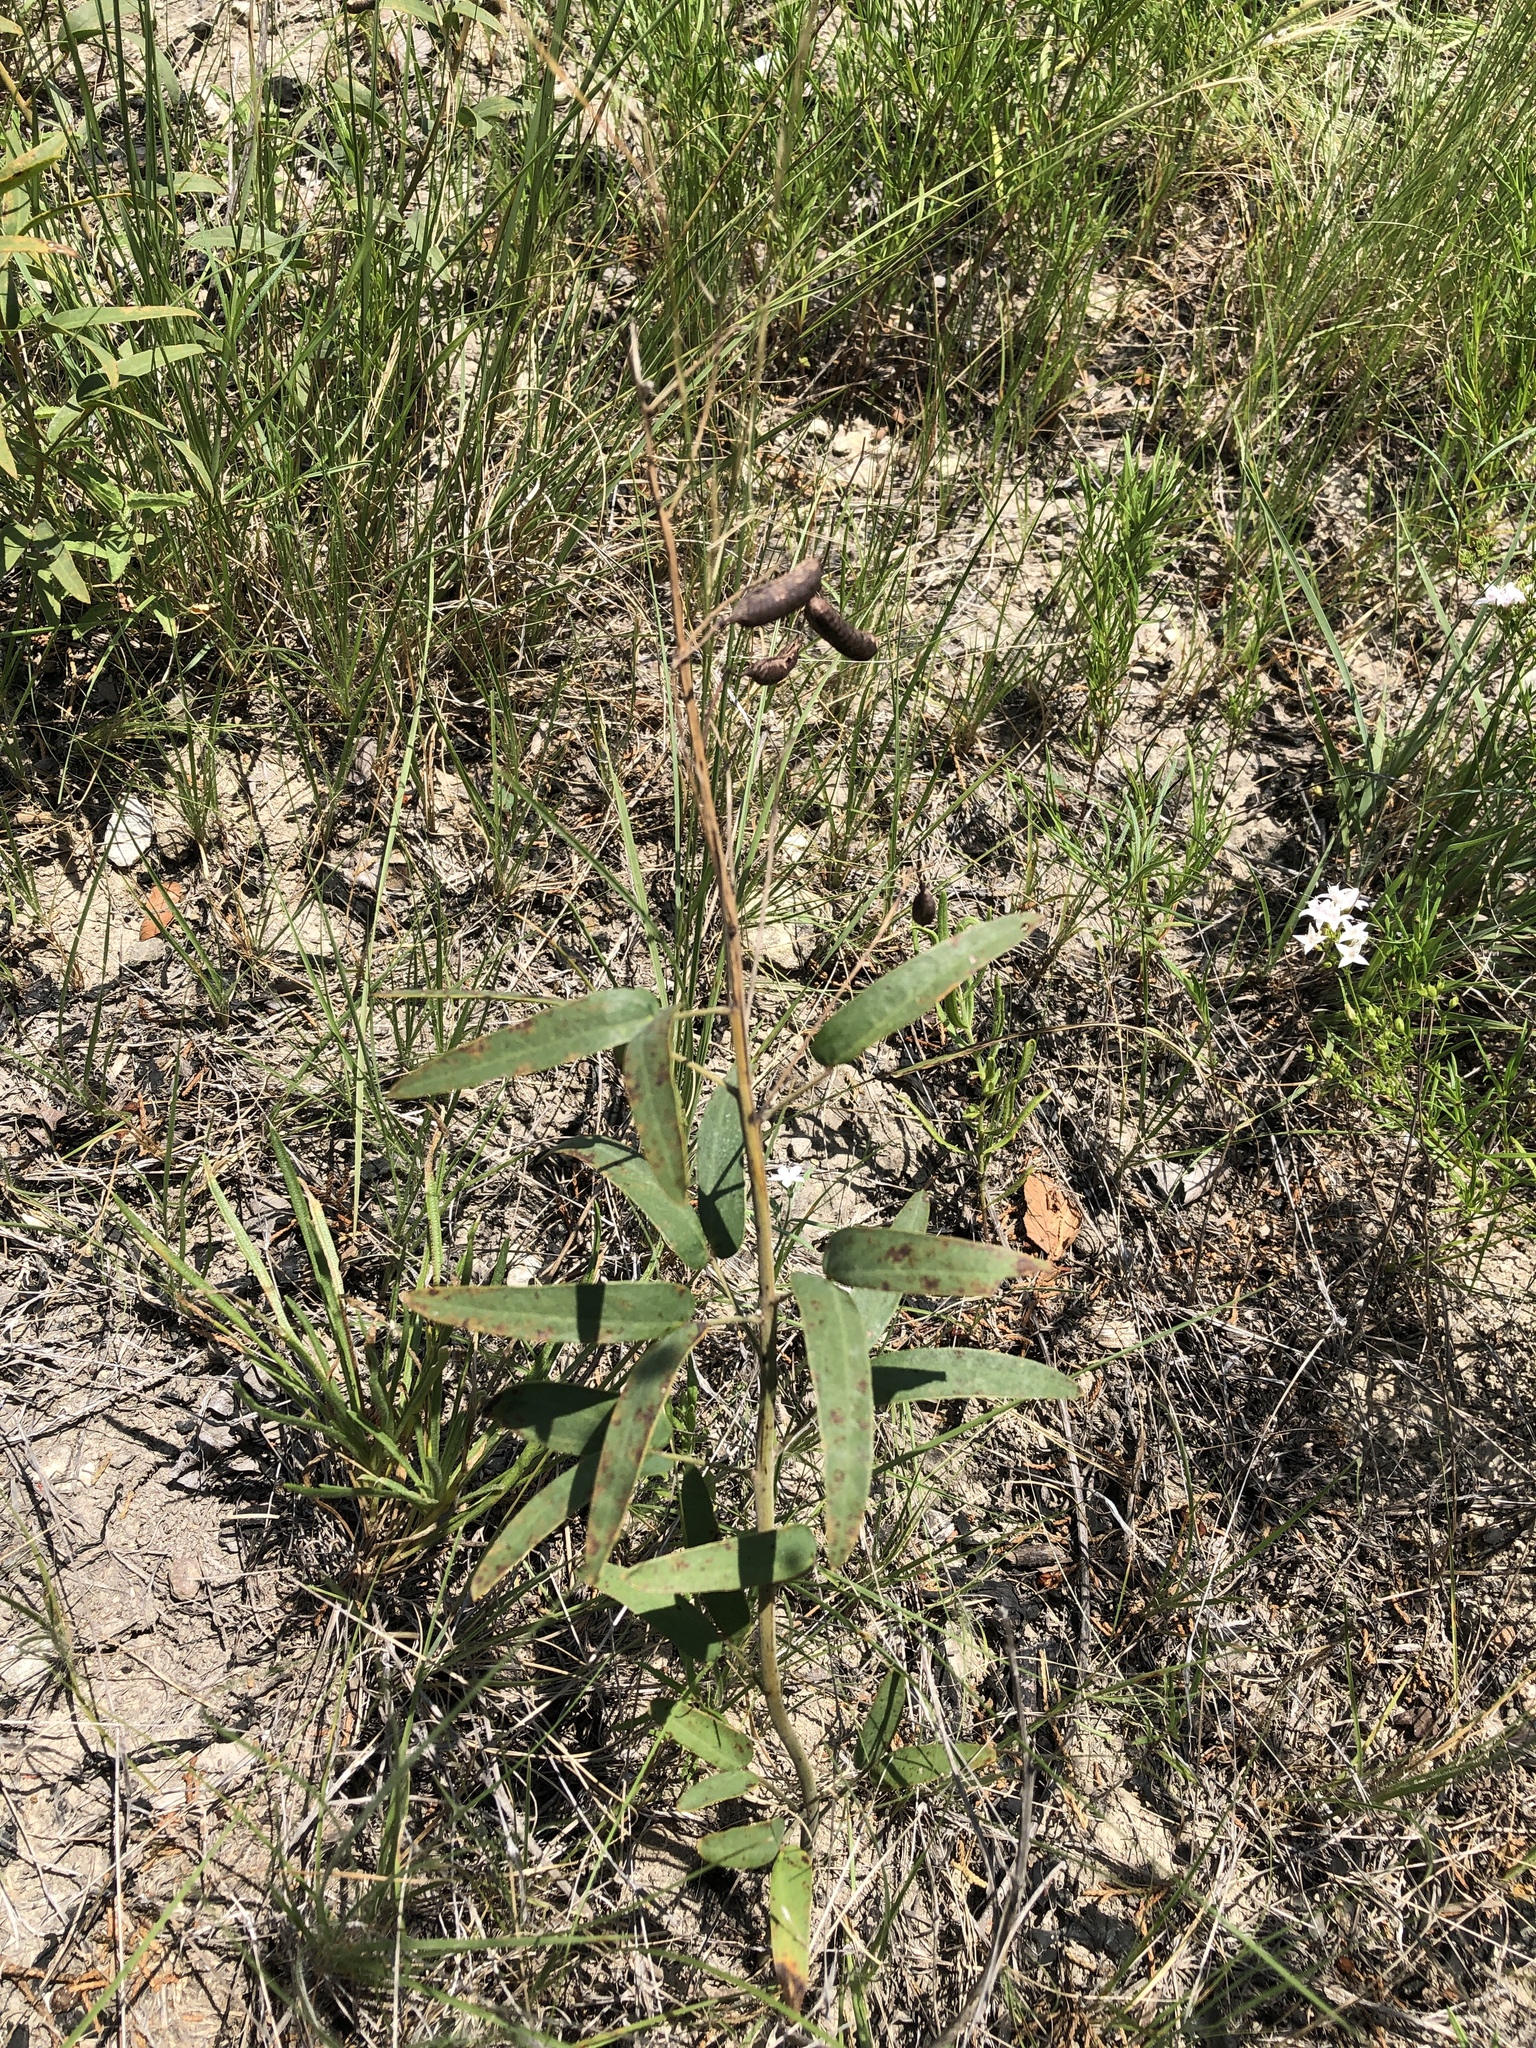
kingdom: Plantae
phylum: Tracheophyta
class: Magnoliopsida
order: Fabales
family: Fabaceae
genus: Senna
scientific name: Senna roemeriana
